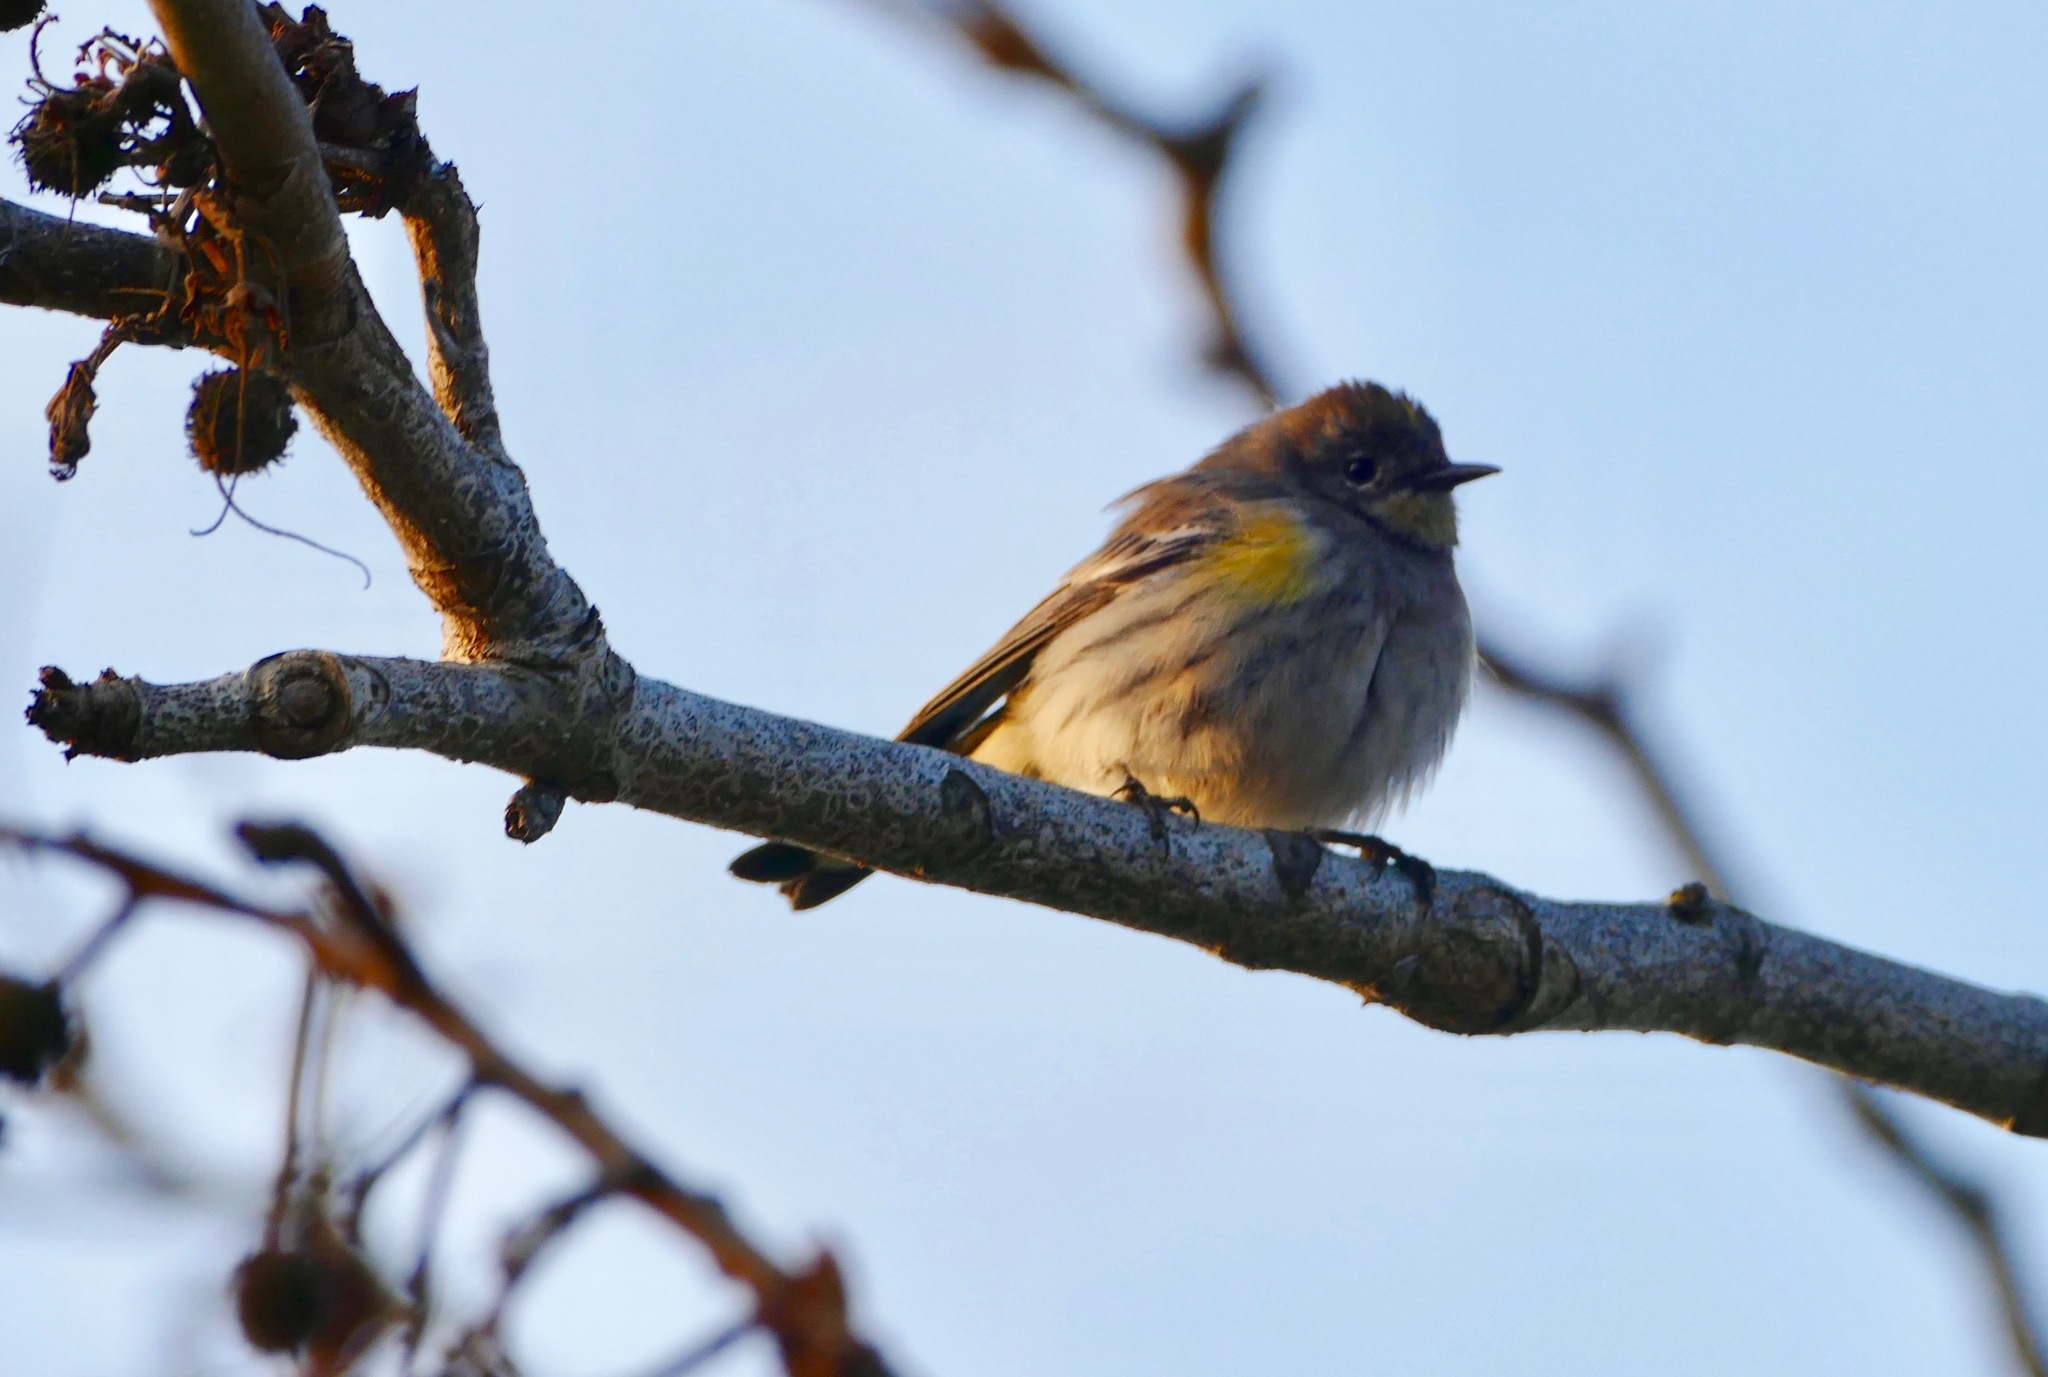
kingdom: Animalia
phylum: Chordata
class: Aves
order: Passeriformes
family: Parulidae
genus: Setophaga
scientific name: Setophaga coronata
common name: Myrtle warbler
